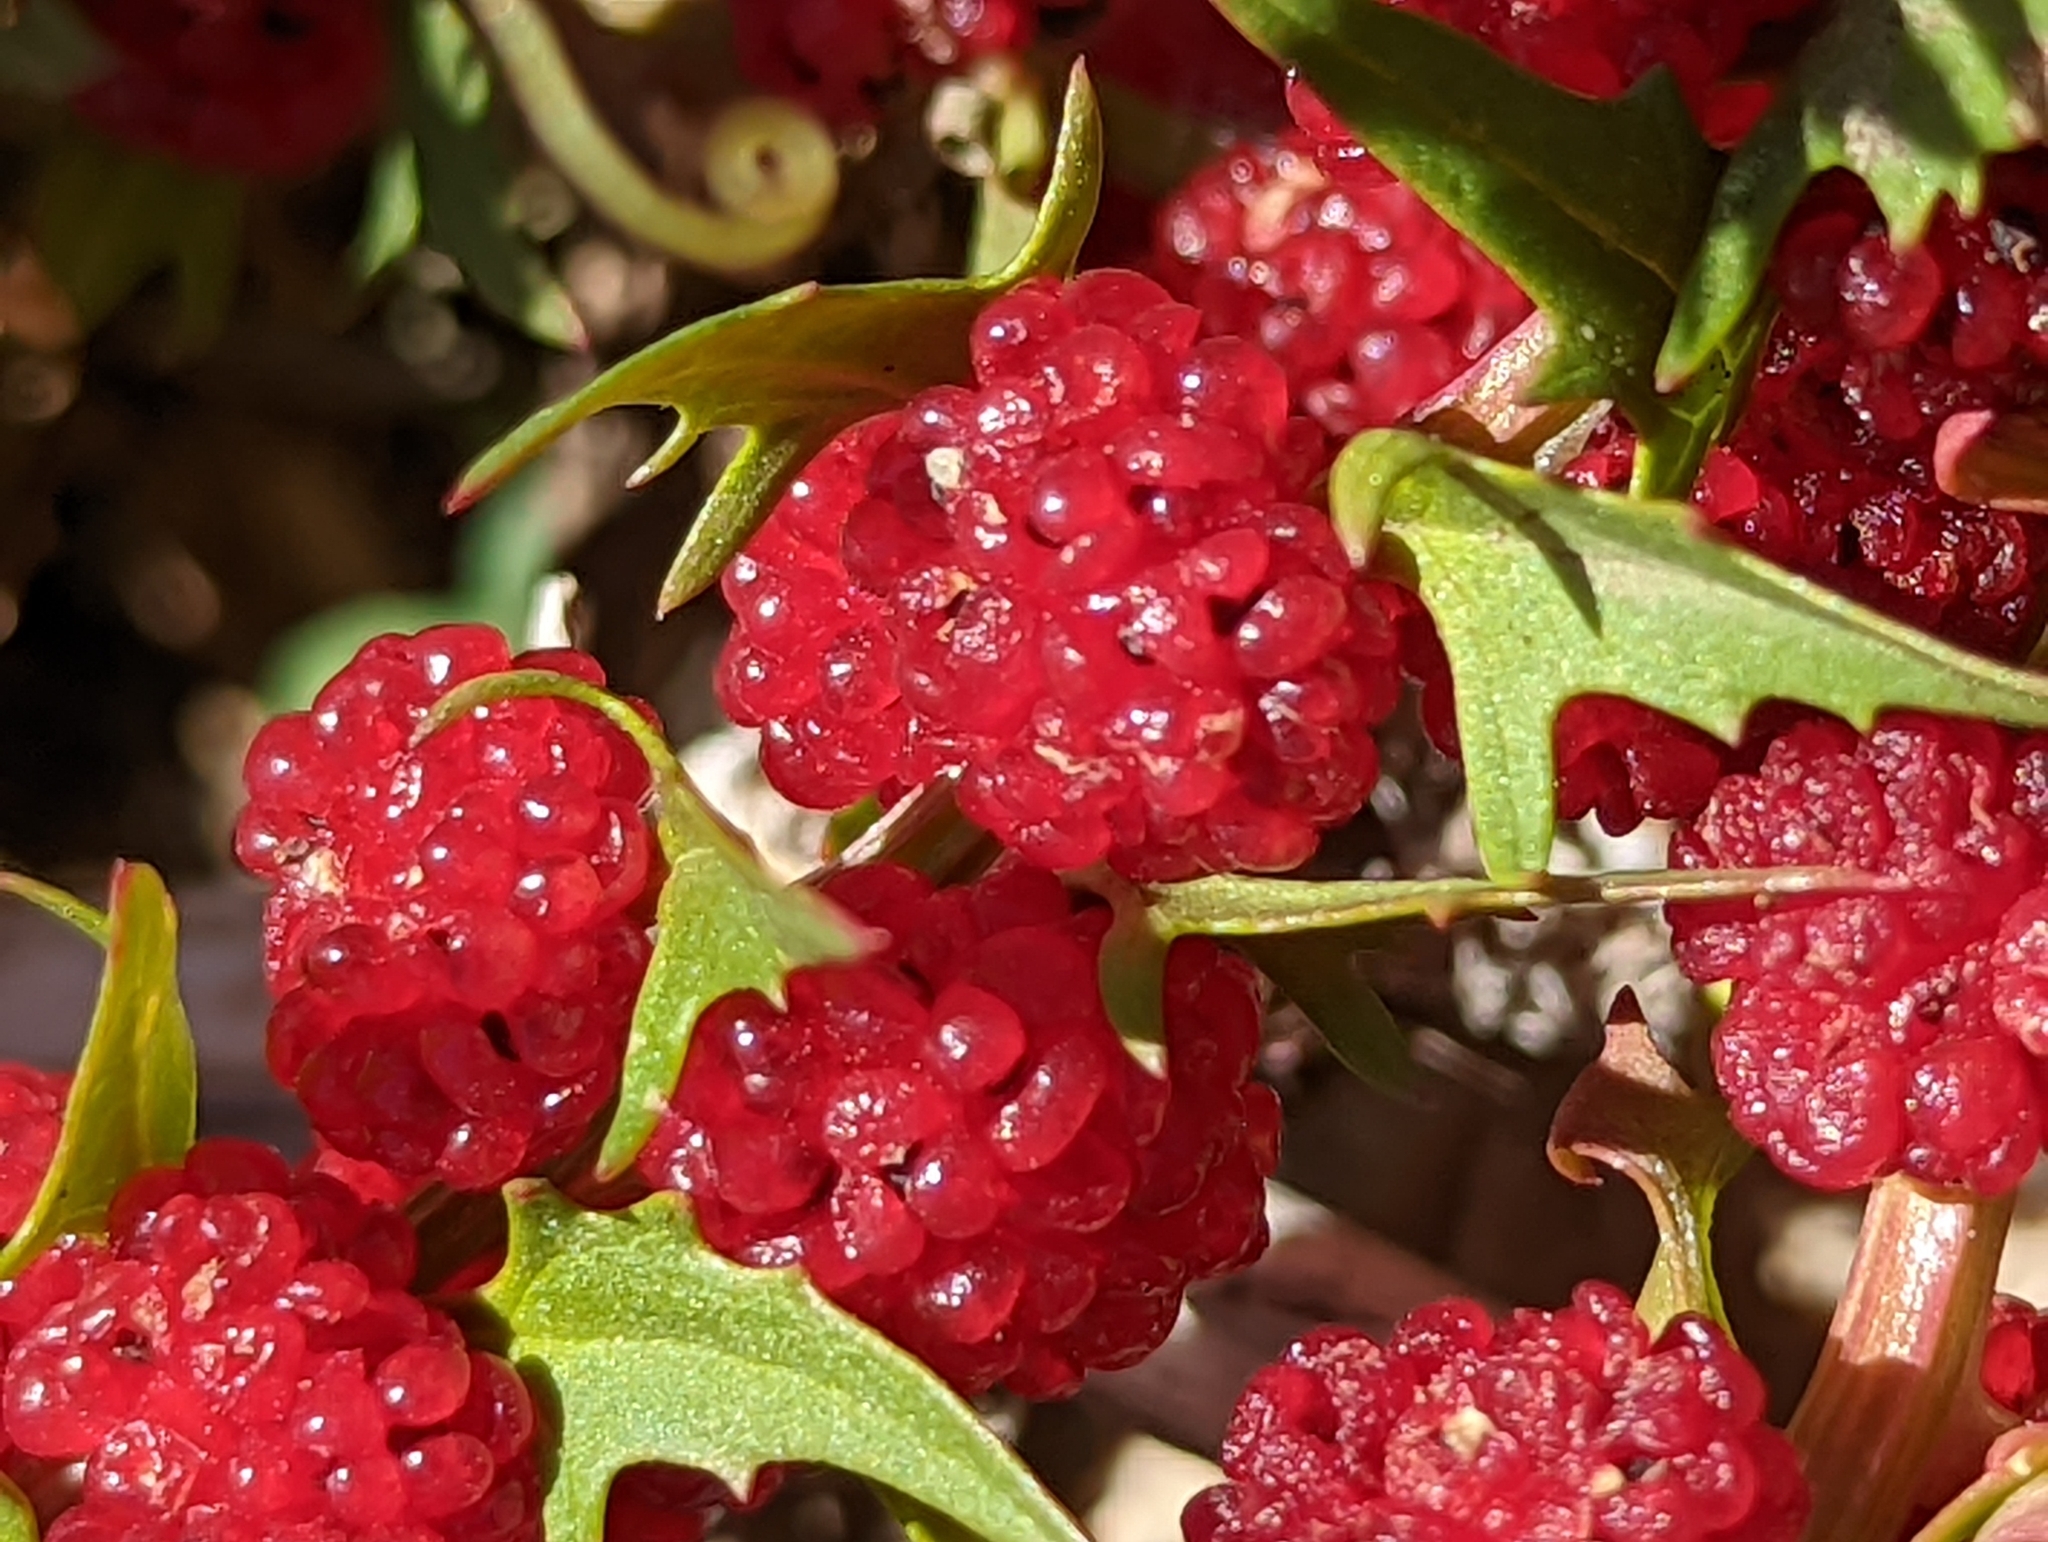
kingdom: Plantae
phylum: Tracheophyta
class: Magnoliopsida
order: Caryophyllales
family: Amaranthaceae
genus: Blitum
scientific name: Blitum virgatum
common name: Strawberry goosefoot
